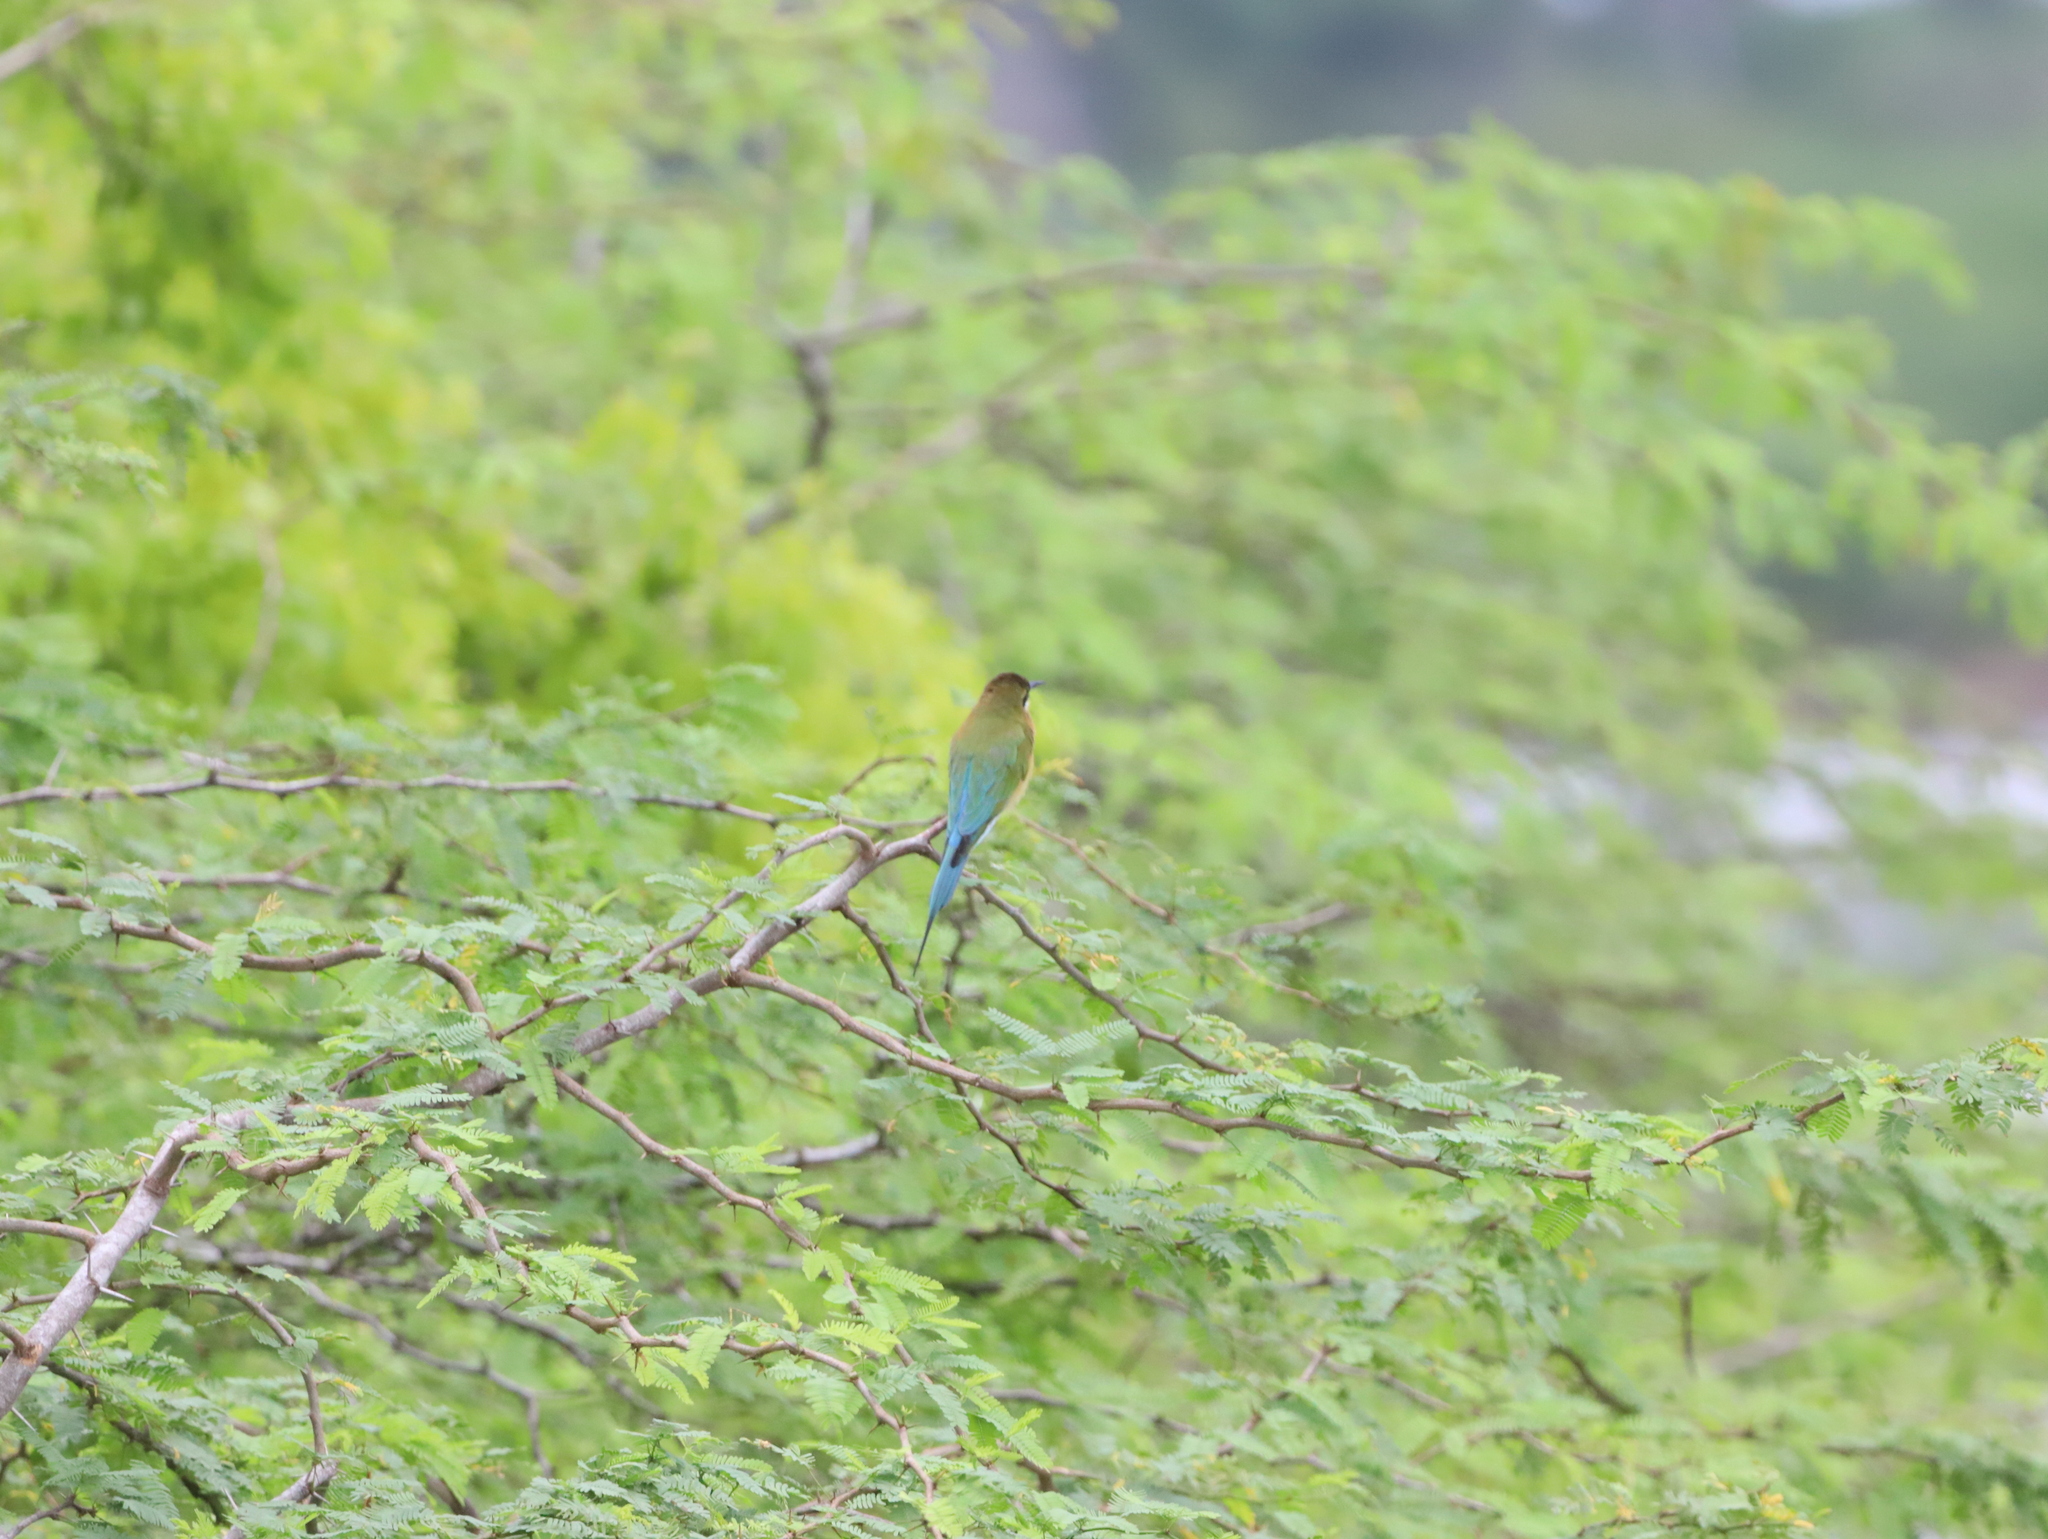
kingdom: Animalia
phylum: Chordata
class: Aves
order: Coraciiformes
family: Meropidae
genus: Merops
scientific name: Merops philippinus
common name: Blue-tailed bee-eater
